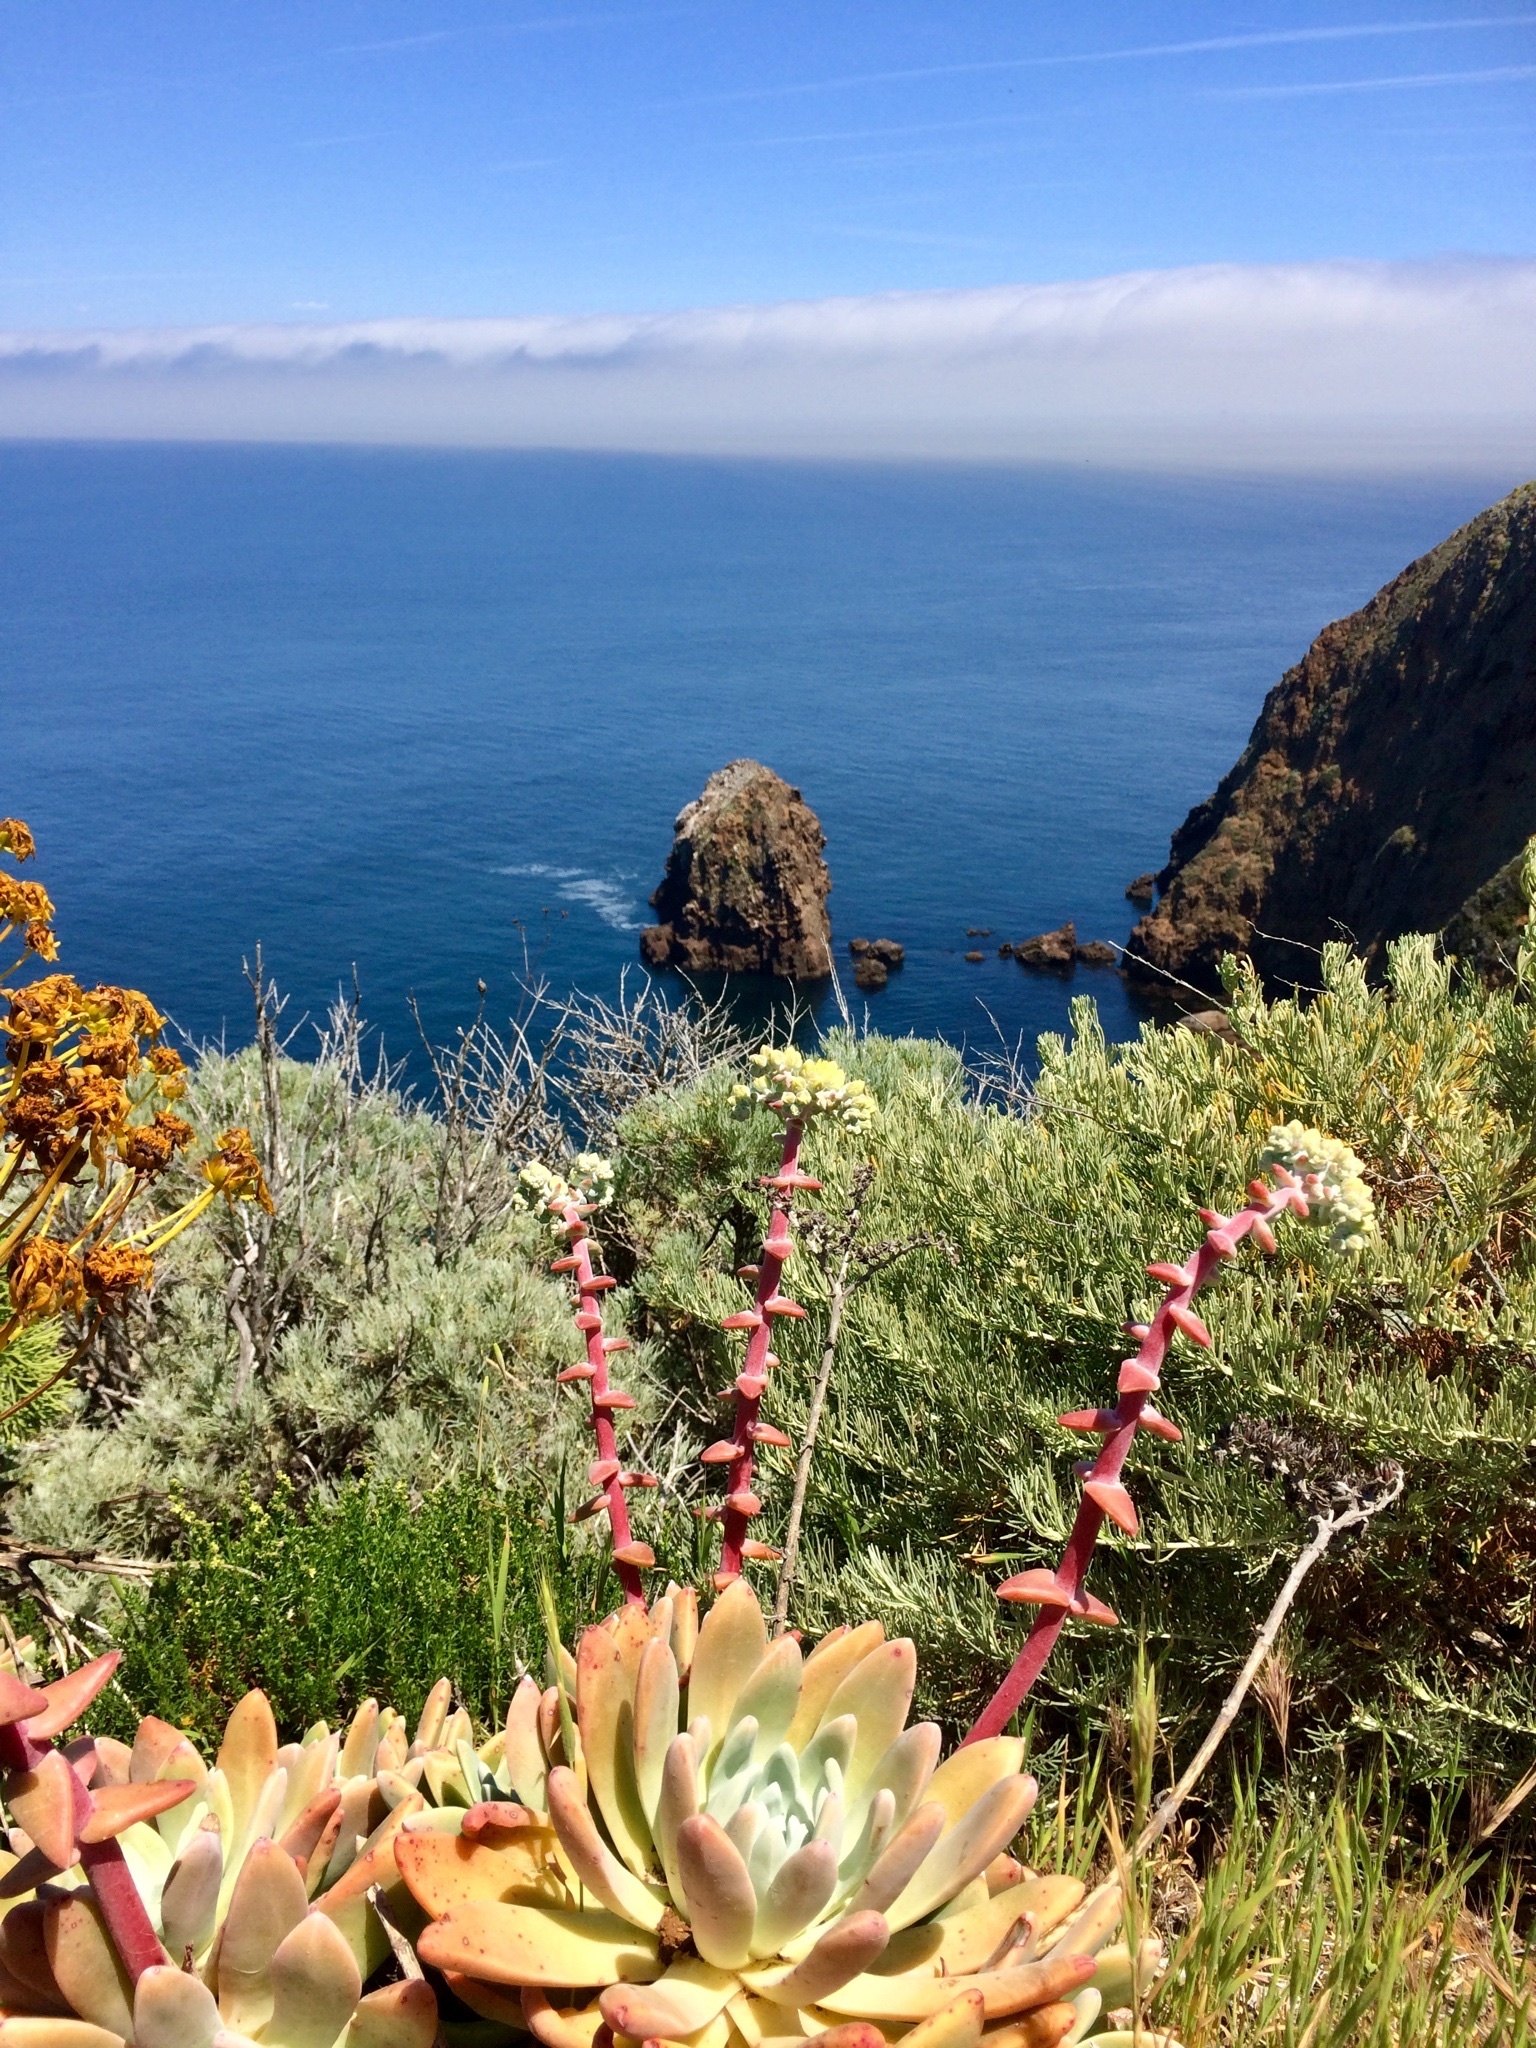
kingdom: Plantae
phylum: Tracheophyta
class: Magnoliopsida
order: Saxifragales
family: Crassulaceae
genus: Dudleya
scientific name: Dudleya greenei
